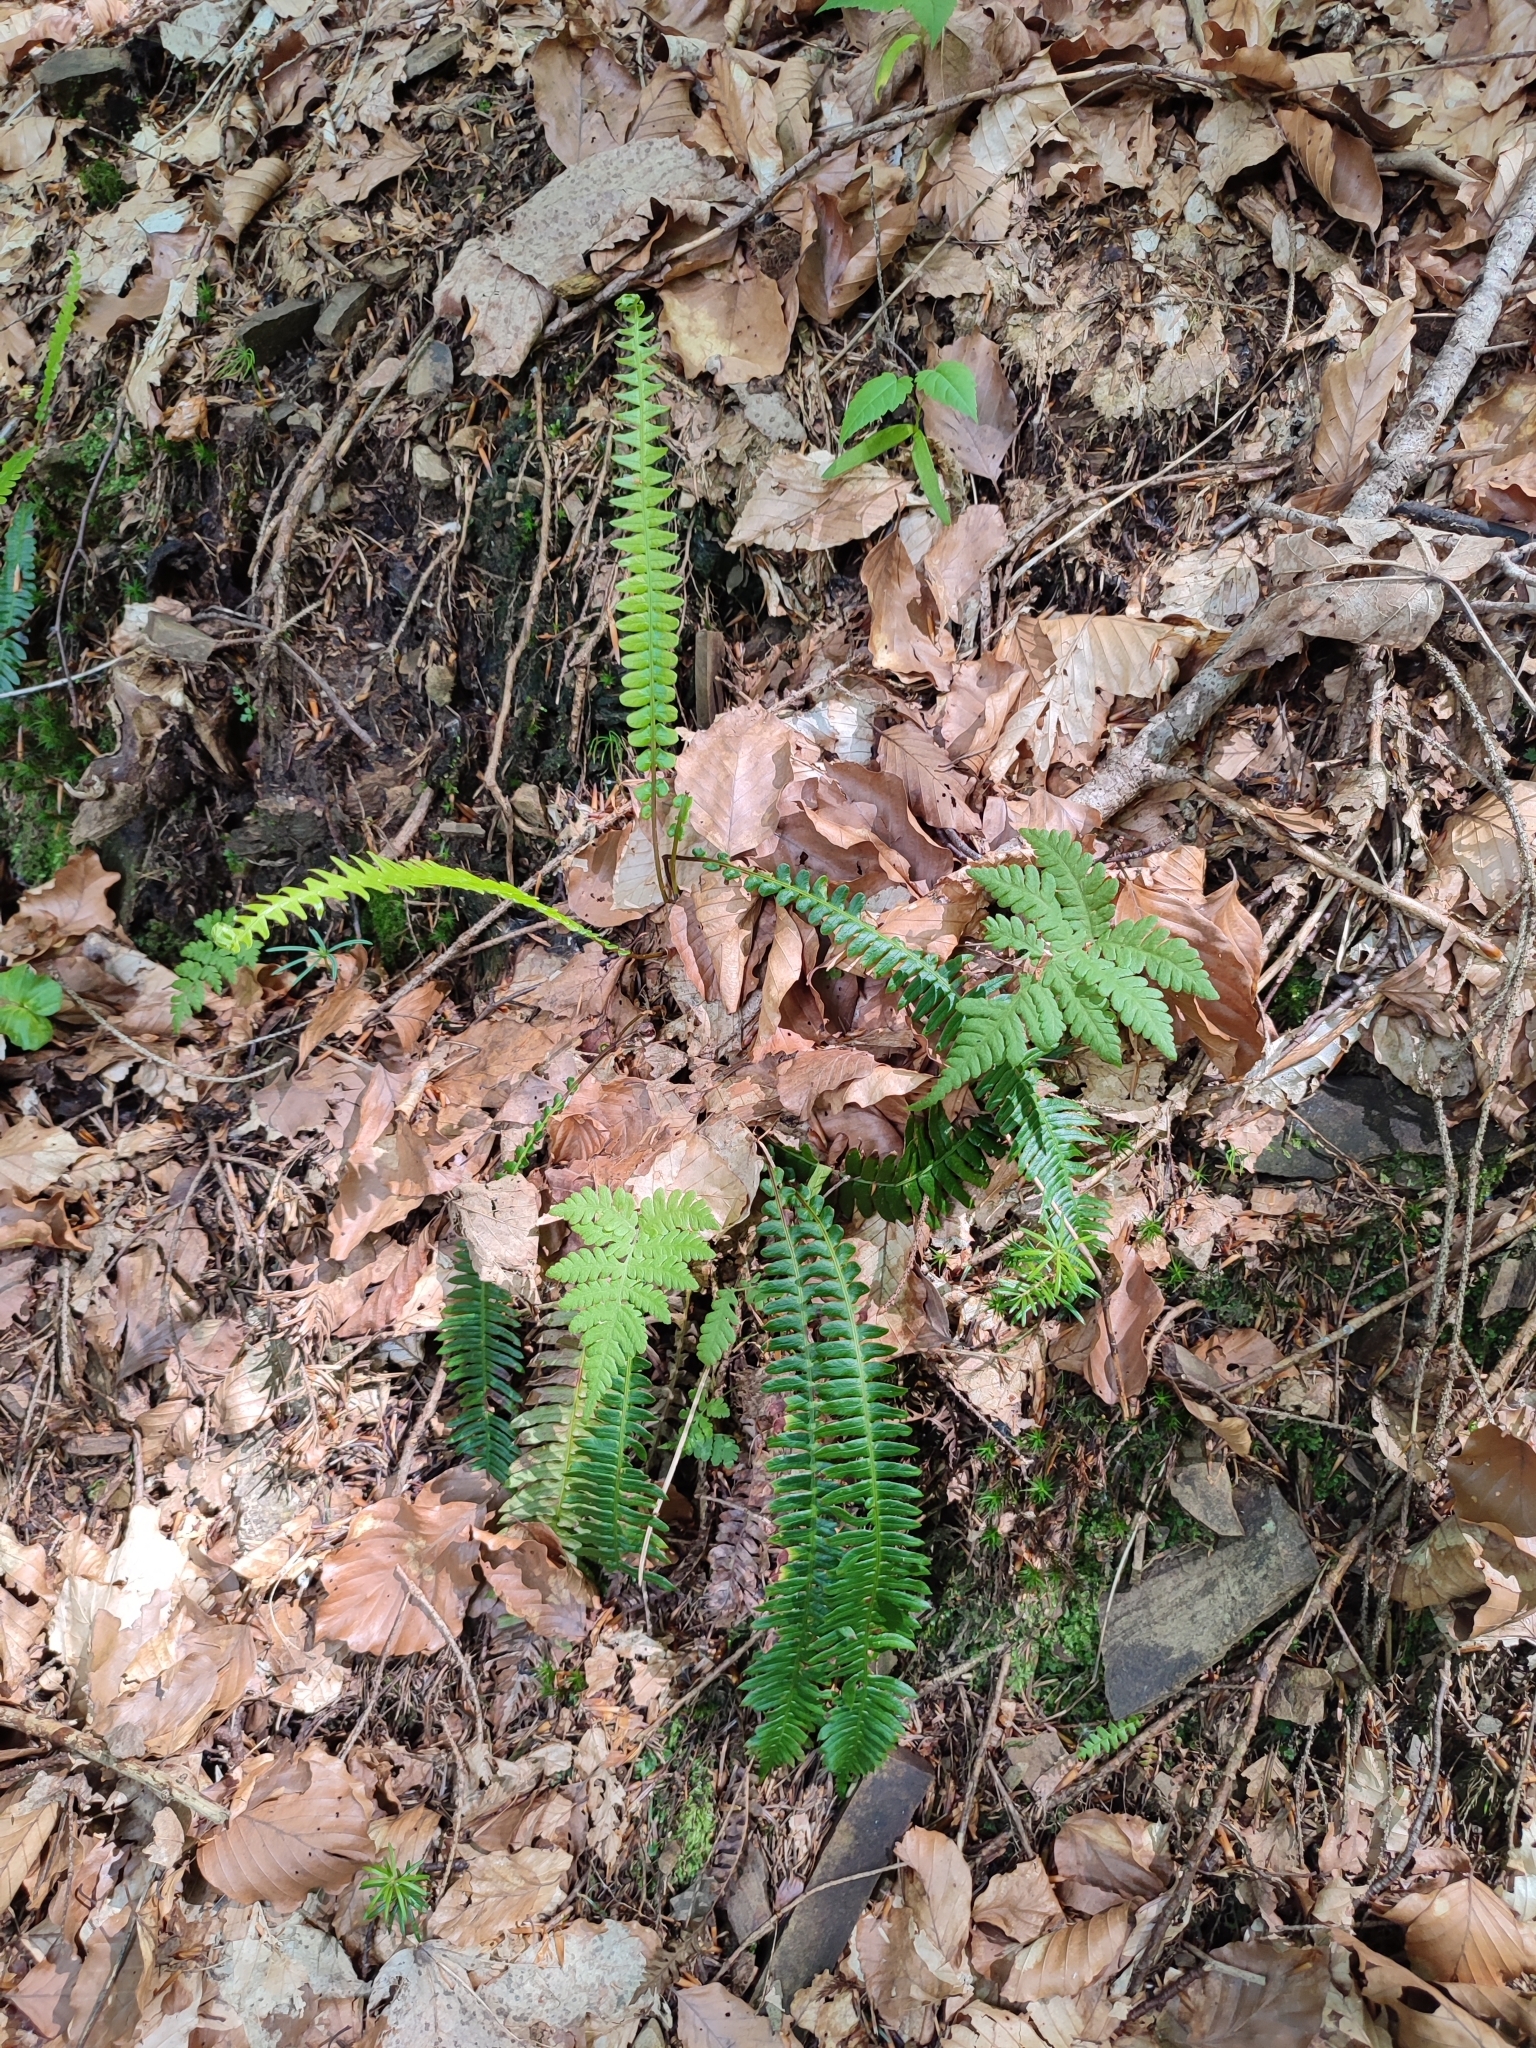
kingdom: Plantae
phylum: Tracheophyta
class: Polypodiopsida
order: Polypodiales
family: Thelypteridaceae
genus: Phegopteris
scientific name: Phegopteris connectilis
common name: Beech fern
